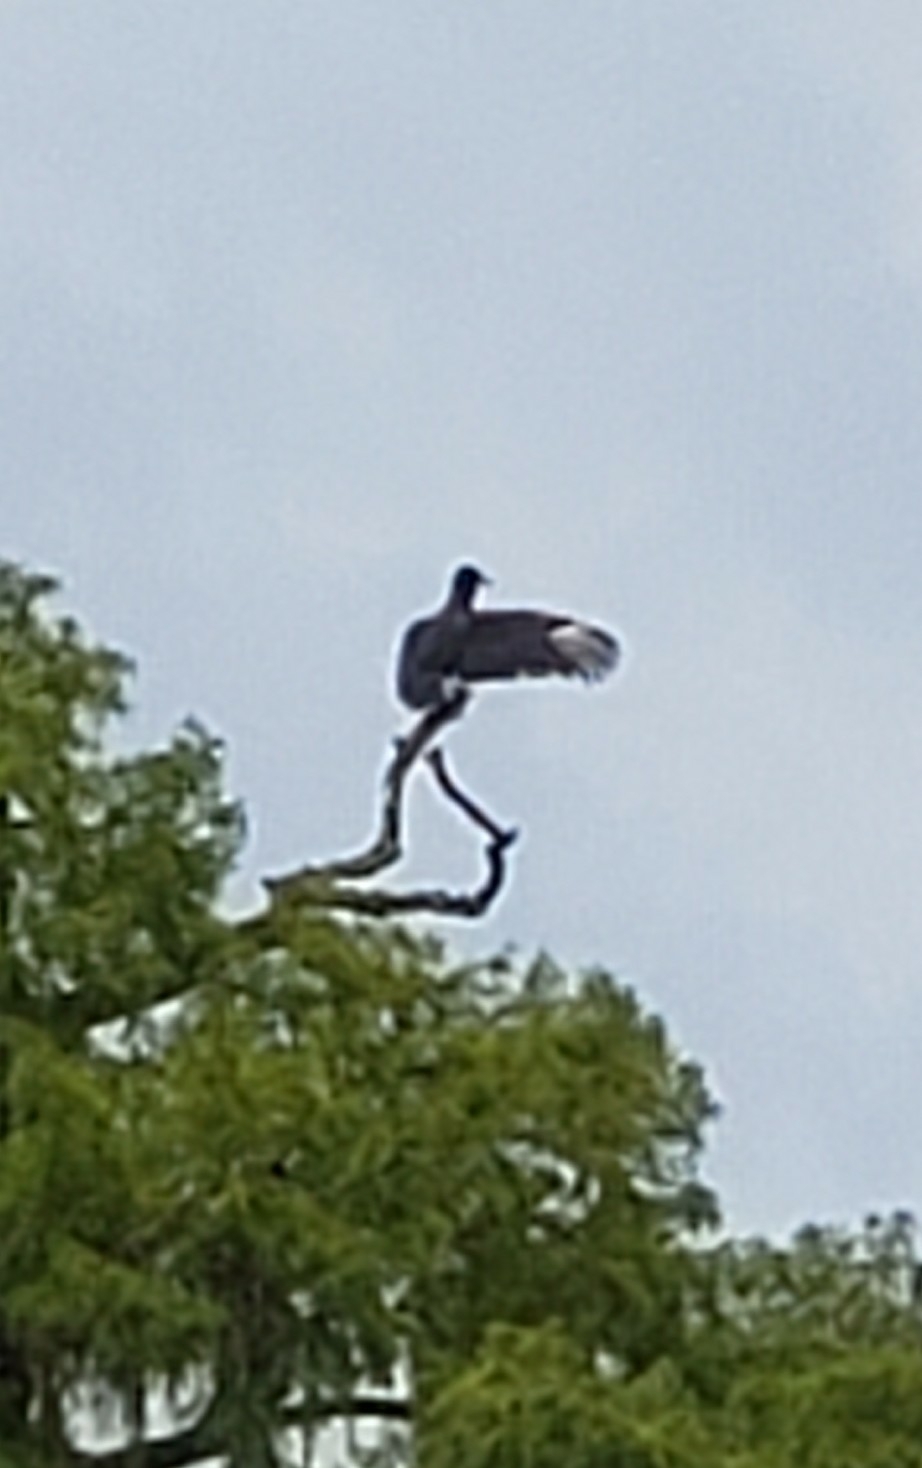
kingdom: Animalia
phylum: Chordata
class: Aves
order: Accipitriformes
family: Cathartidae
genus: Coragyps
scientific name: Coragyps atratus
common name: Black vulture
